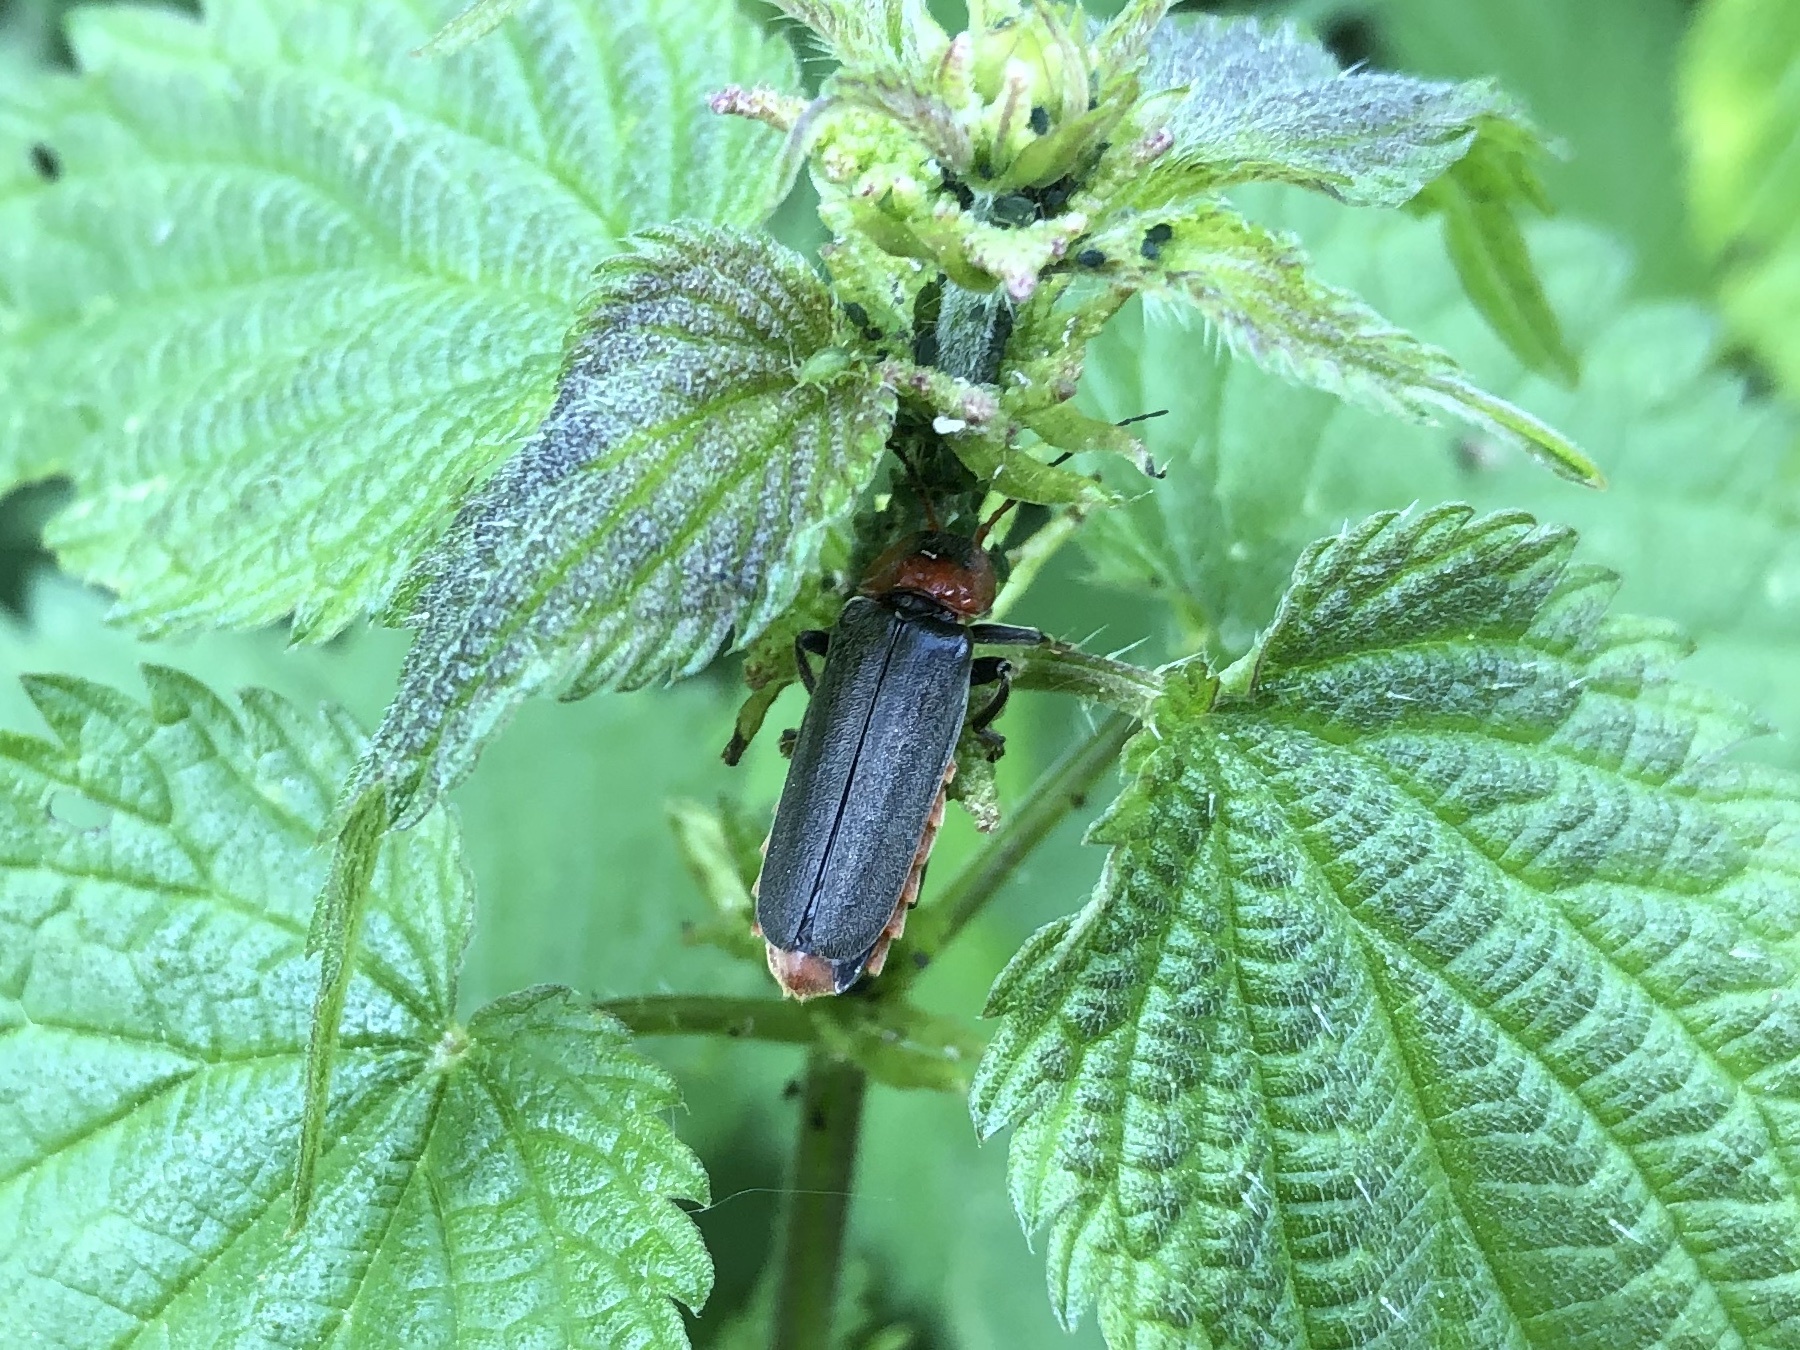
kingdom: Animalia
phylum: Arthropoda
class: Insecta
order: Coleoptera
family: Cantharidae
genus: Cantharis
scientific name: Cantharis fusca
